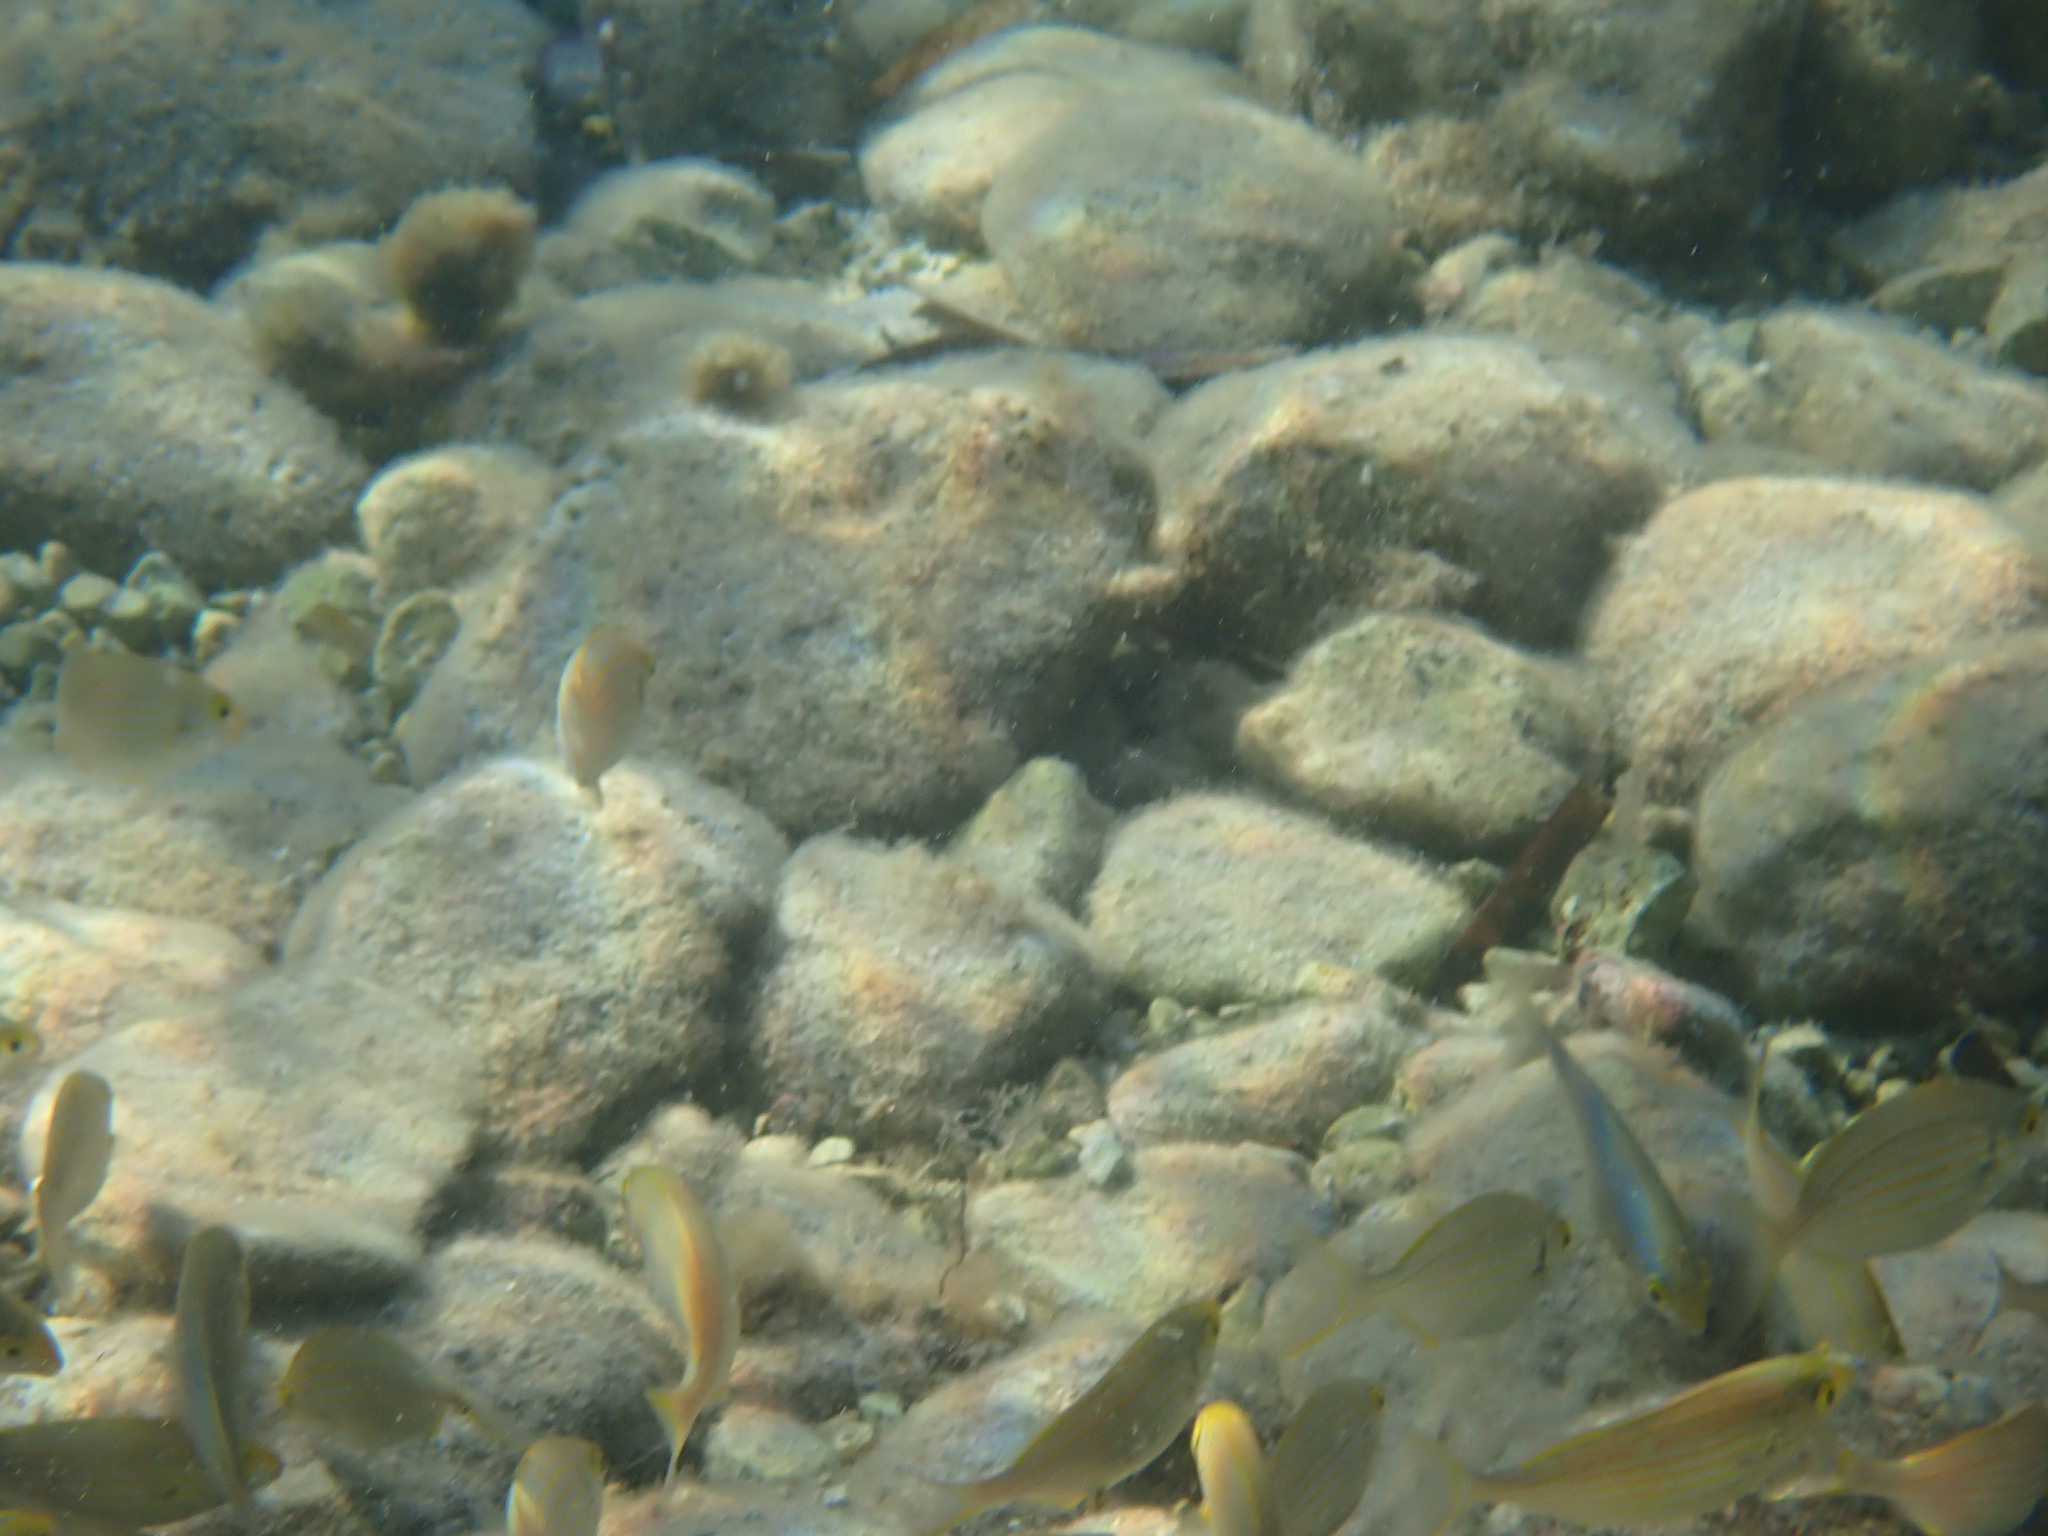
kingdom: Animalia
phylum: Chordata
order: Perciformes
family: Sparidae
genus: Sarpa
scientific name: Sarpa salpa
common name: Salema
